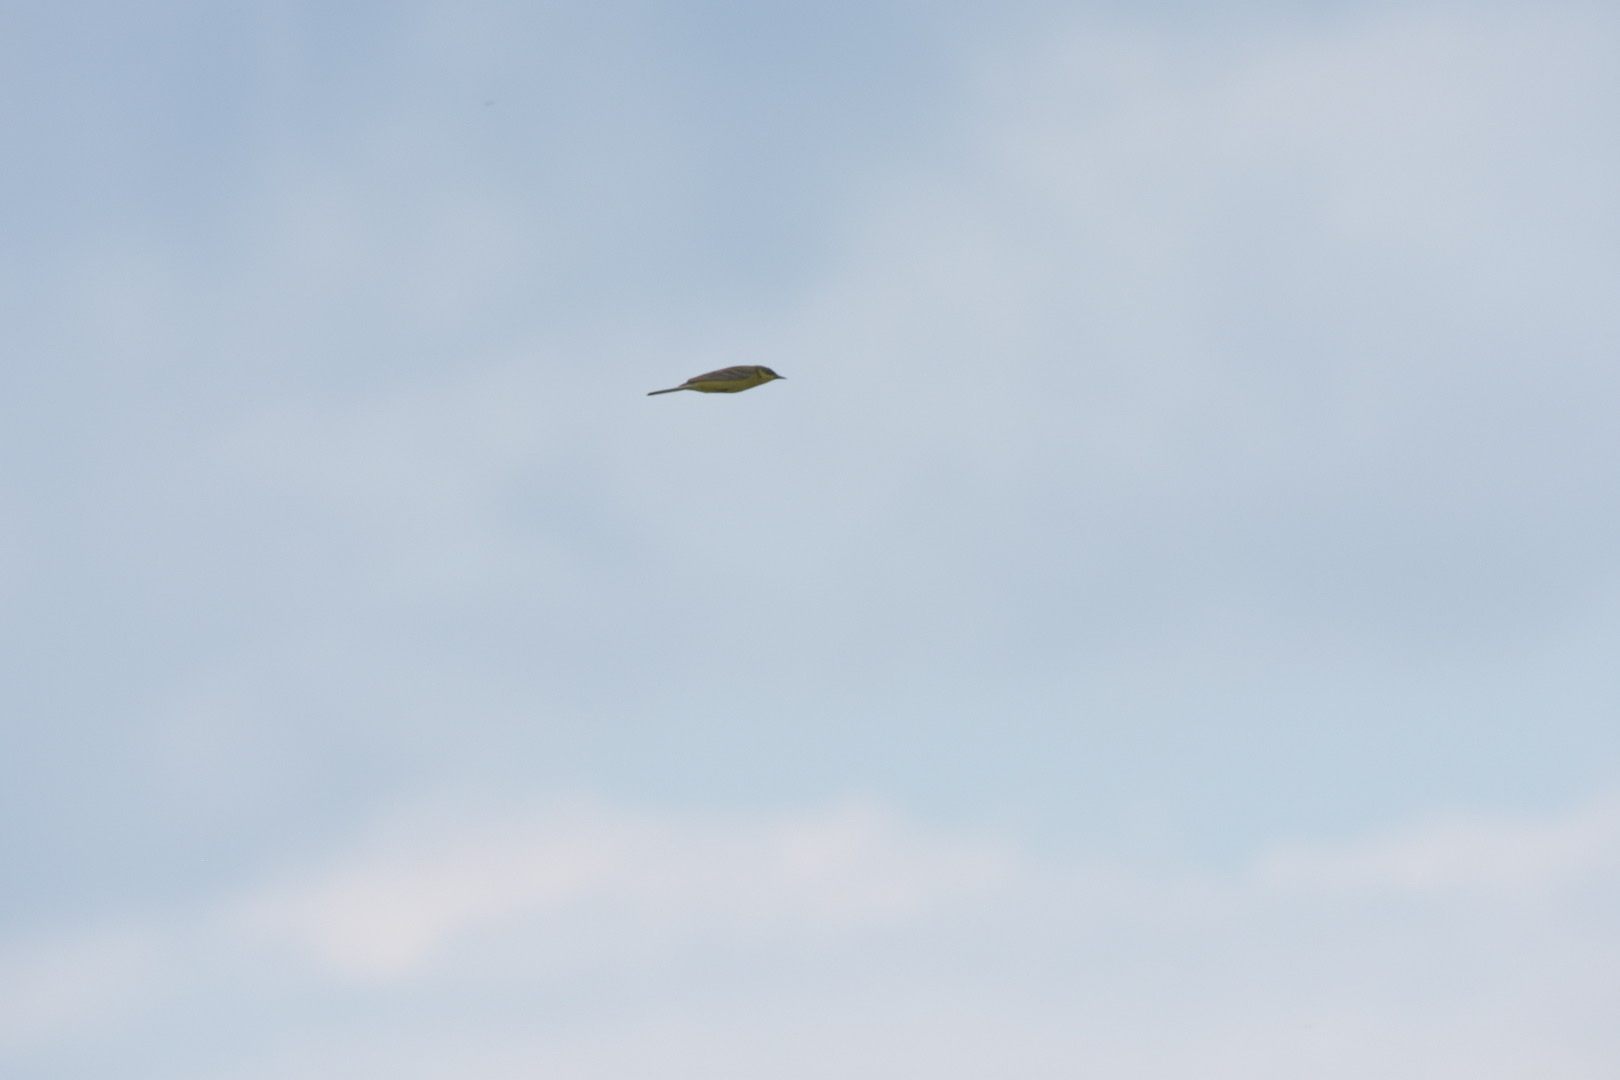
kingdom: Animalia
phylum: Chordata
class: Aves
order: Passeriformes
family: Motacillidae
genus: Motacilla
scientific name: Motacilla flava
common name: Western yellow wagtail
